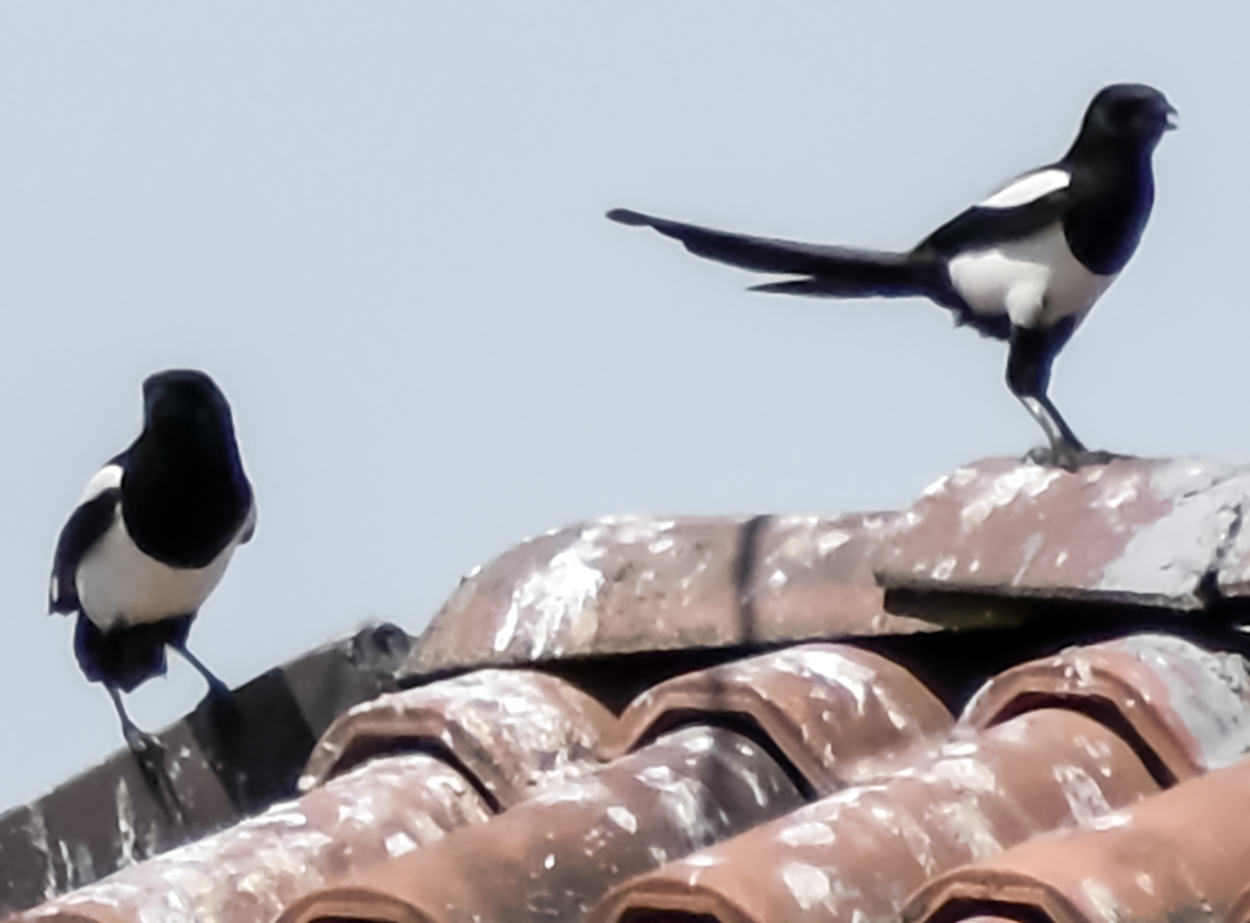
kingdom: Animalia
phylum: Chordata
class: Aves
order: Passeriformes
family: Corvidae
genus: Pica
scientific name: Pica pica
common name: Eurasian magpie
